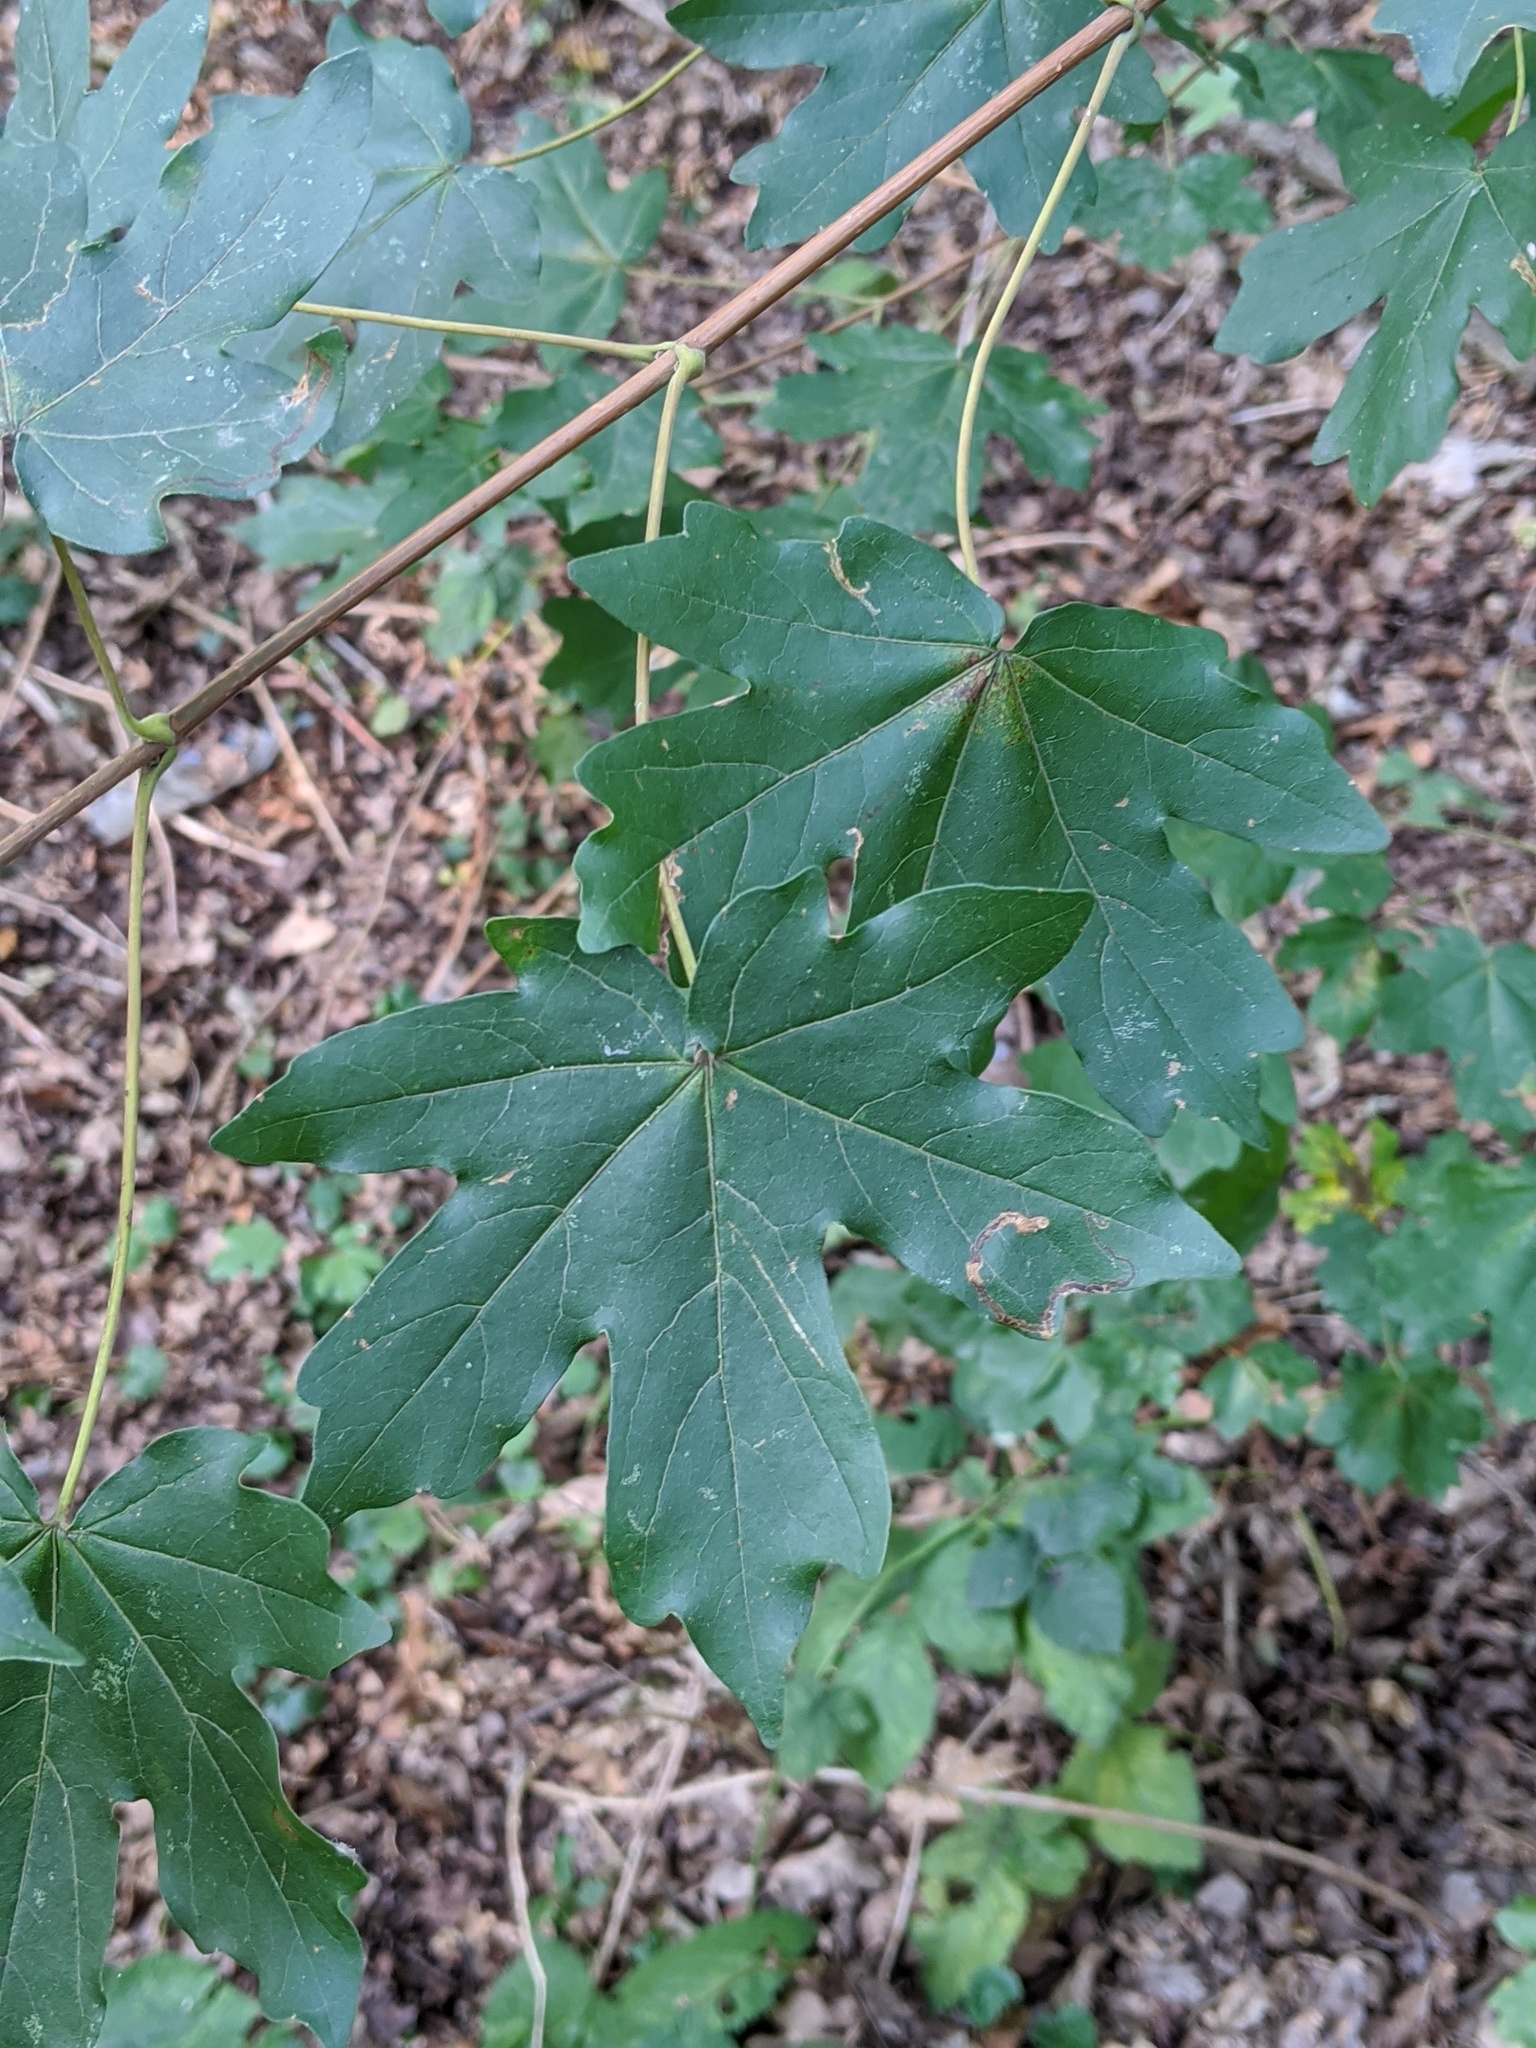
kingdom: Plantae
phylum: Tracheophyta
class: Magnoliopsida
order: Sapindales
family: Sapindaceae
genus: Acer
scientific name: Acer campestre
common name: Field maple
